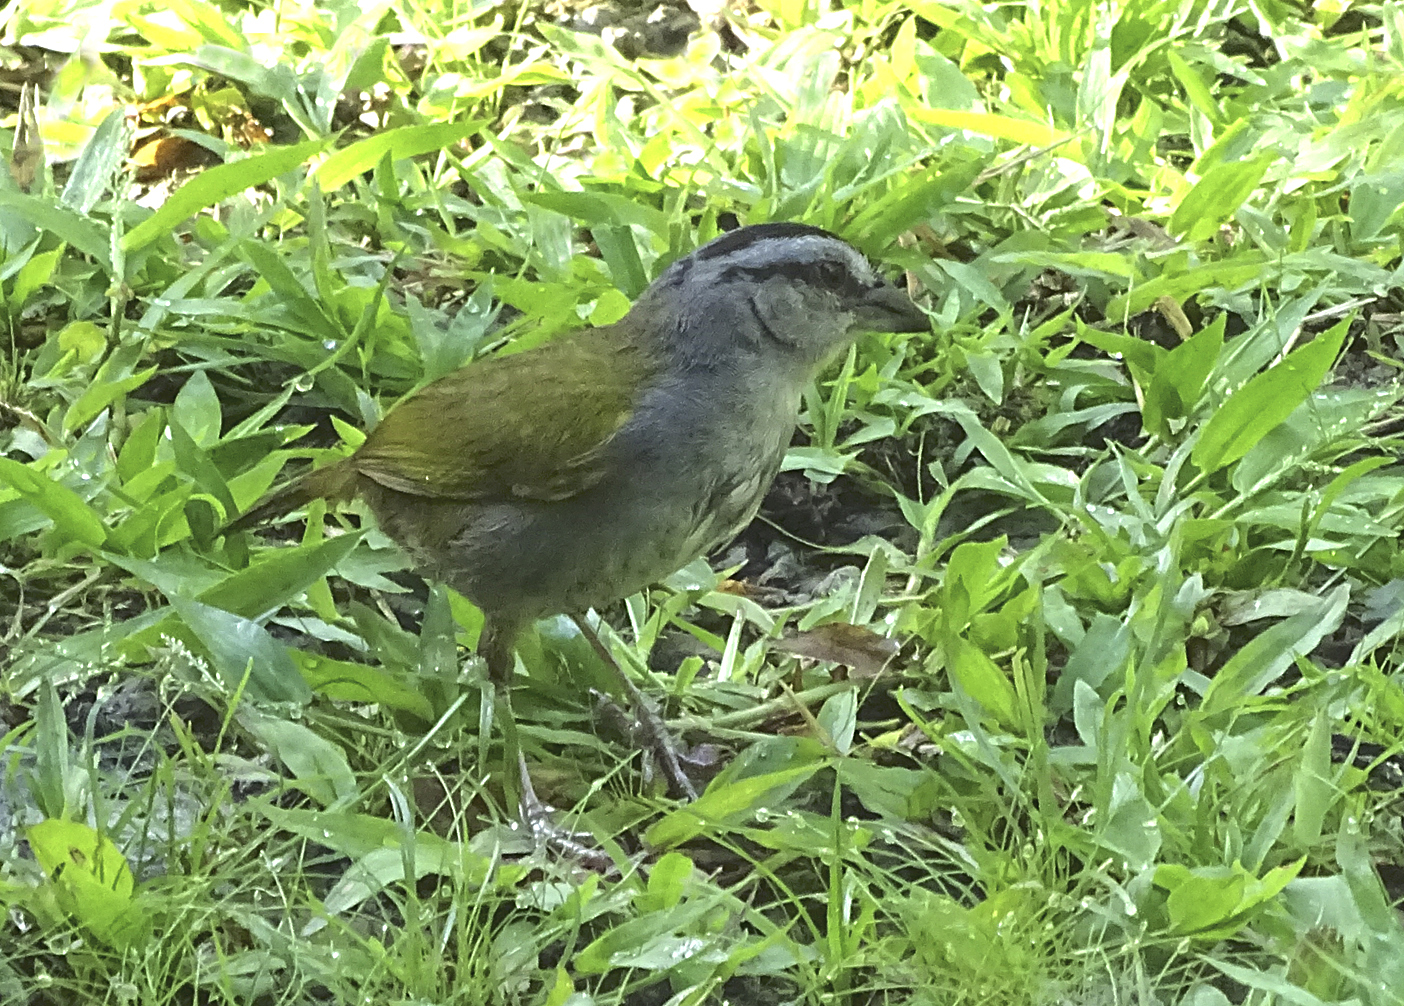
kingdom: Animalia
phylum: Chordata
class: Aves
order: Passeriformes
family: Passerellidae
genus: Arremonops
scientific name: Arremonops conirostris
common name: Black-striped sparrow
